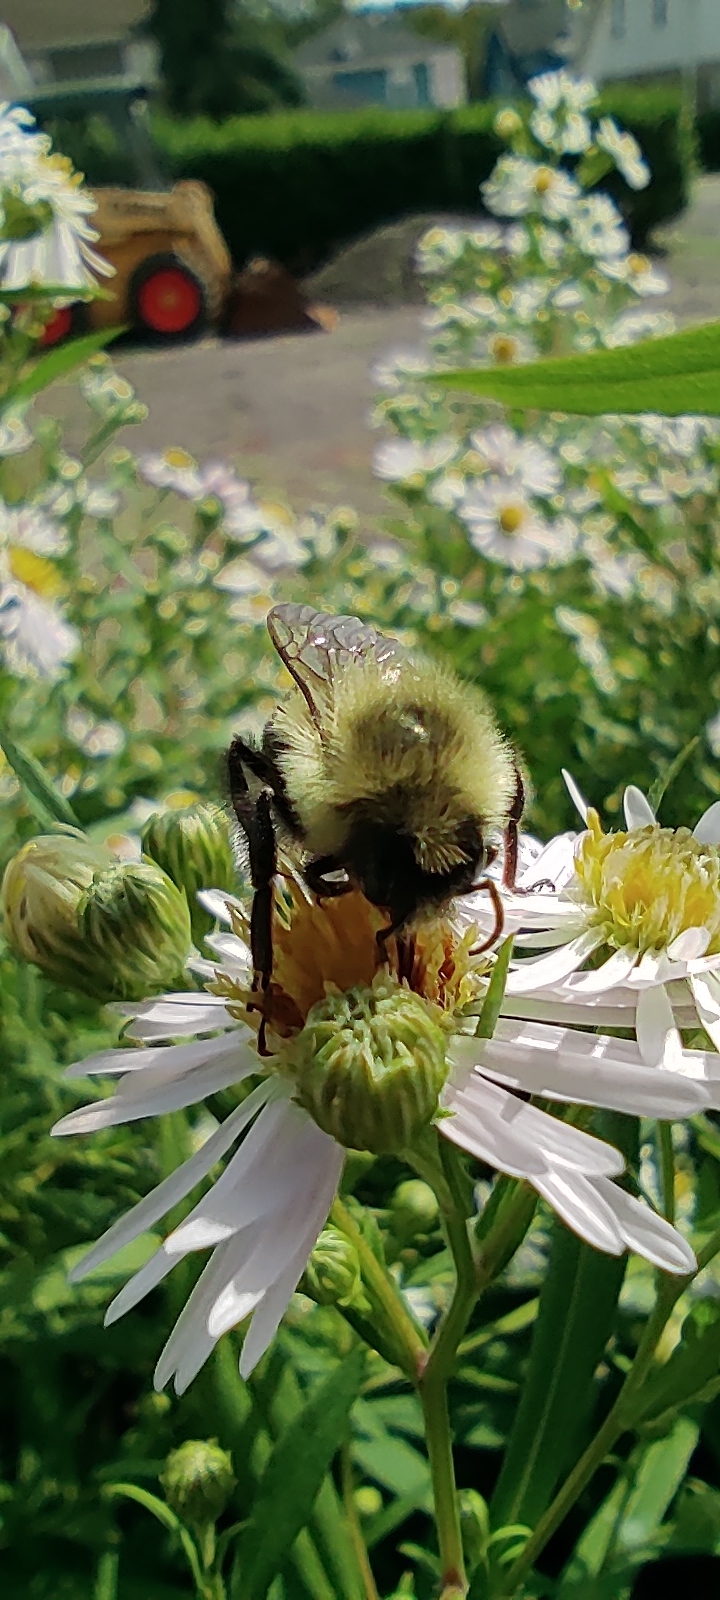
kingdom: Animalia
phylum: Arthropoda
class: Insecta
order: Hymenoptera
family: Apidae
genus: Bombus
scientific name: Bombus impatiens
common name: Common eastern bumble bee
